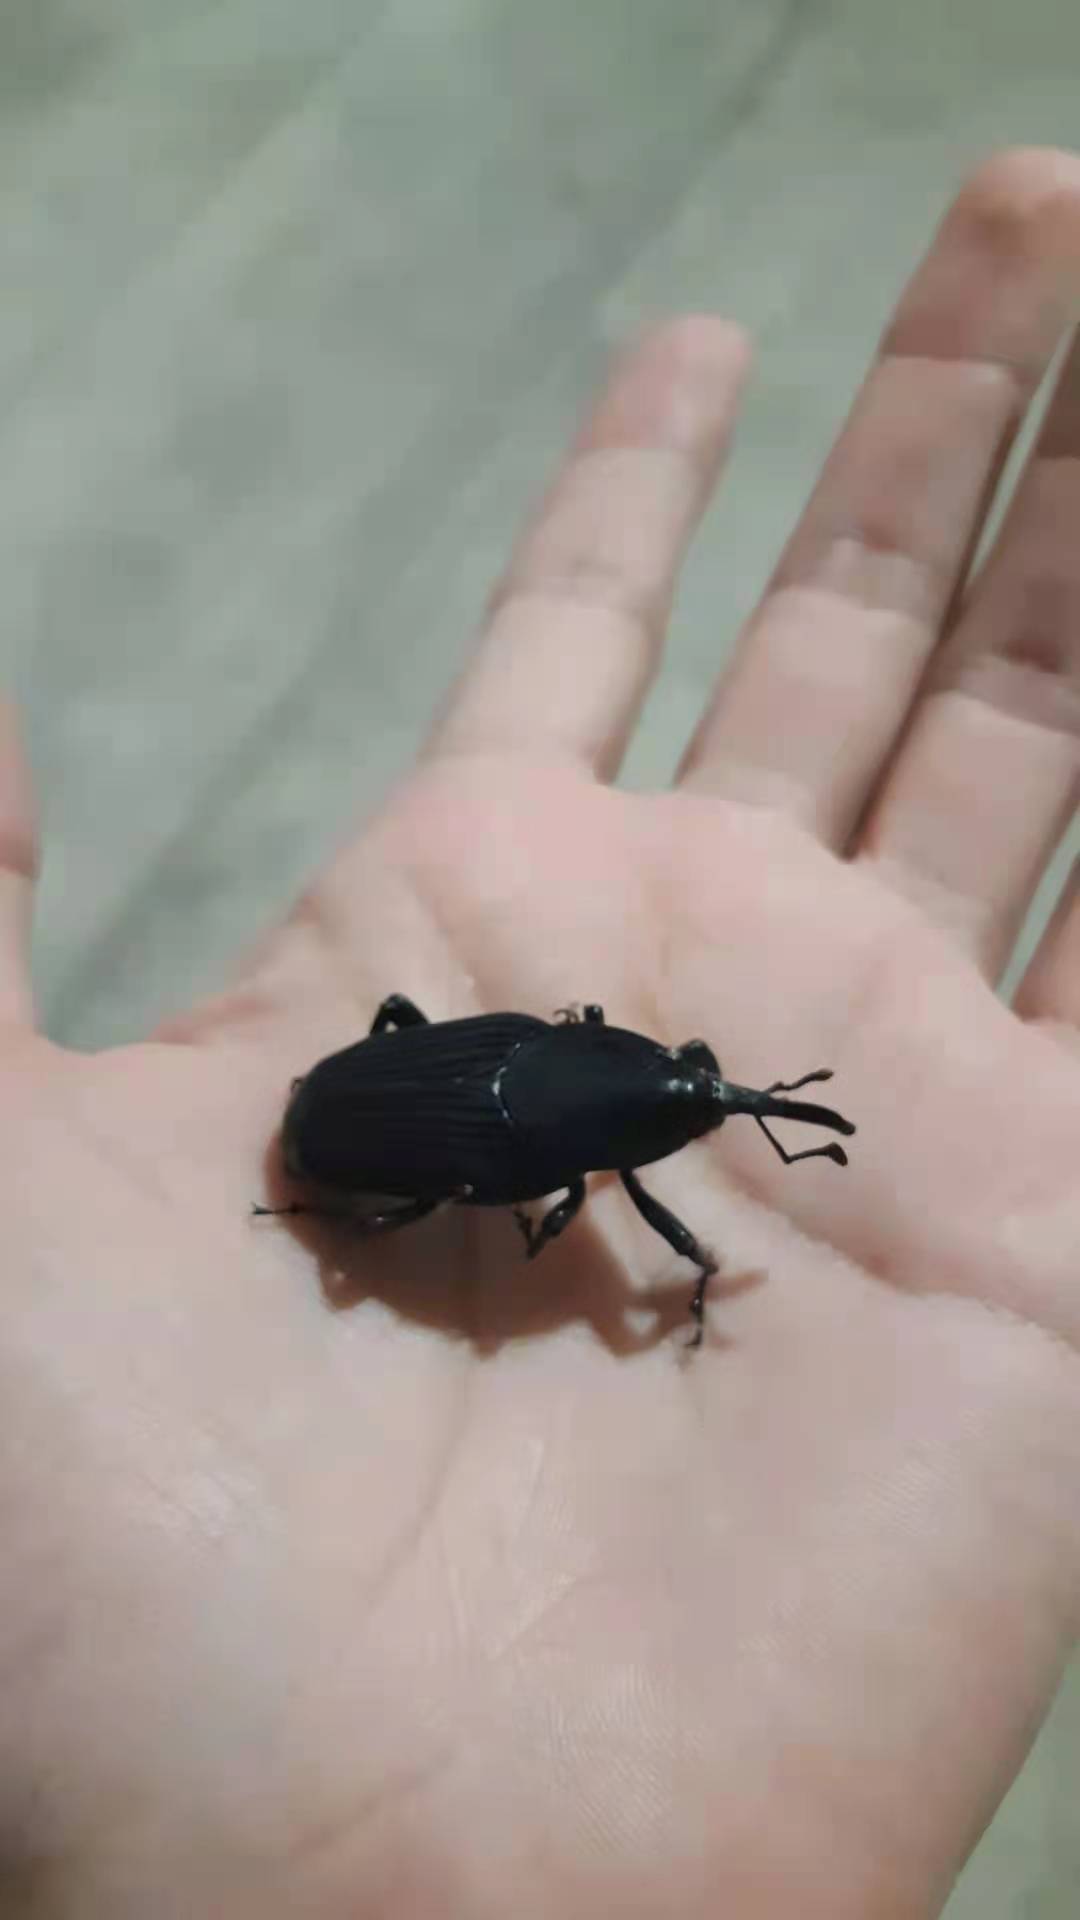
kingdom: Animalia
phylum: Arthropoda
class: Insecta
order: Coleoptera
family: Dryophthoridae
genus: Rhynchophorus
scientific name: Rhynchophorus palmarum
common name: Palm weevil
